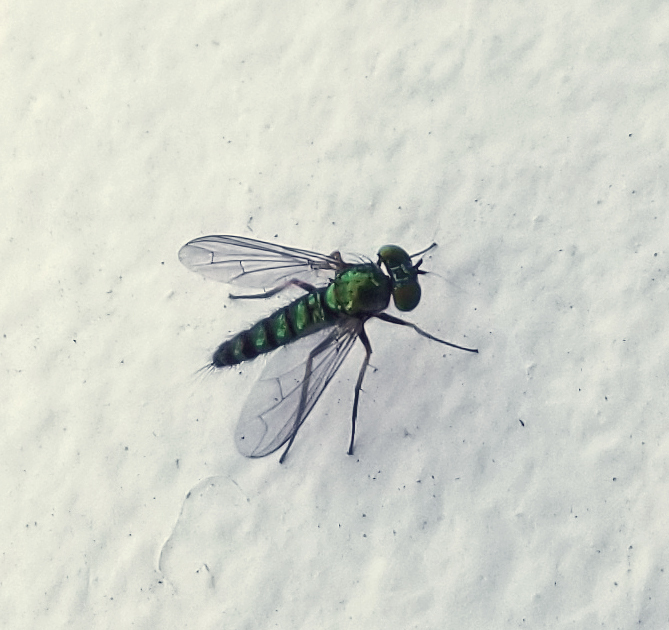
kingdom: Animalia
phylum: Arthropoda
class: Insecta
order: Diptera
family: Dolichopodidae
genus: Condylostylus
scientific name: Condylostylus caudatus
